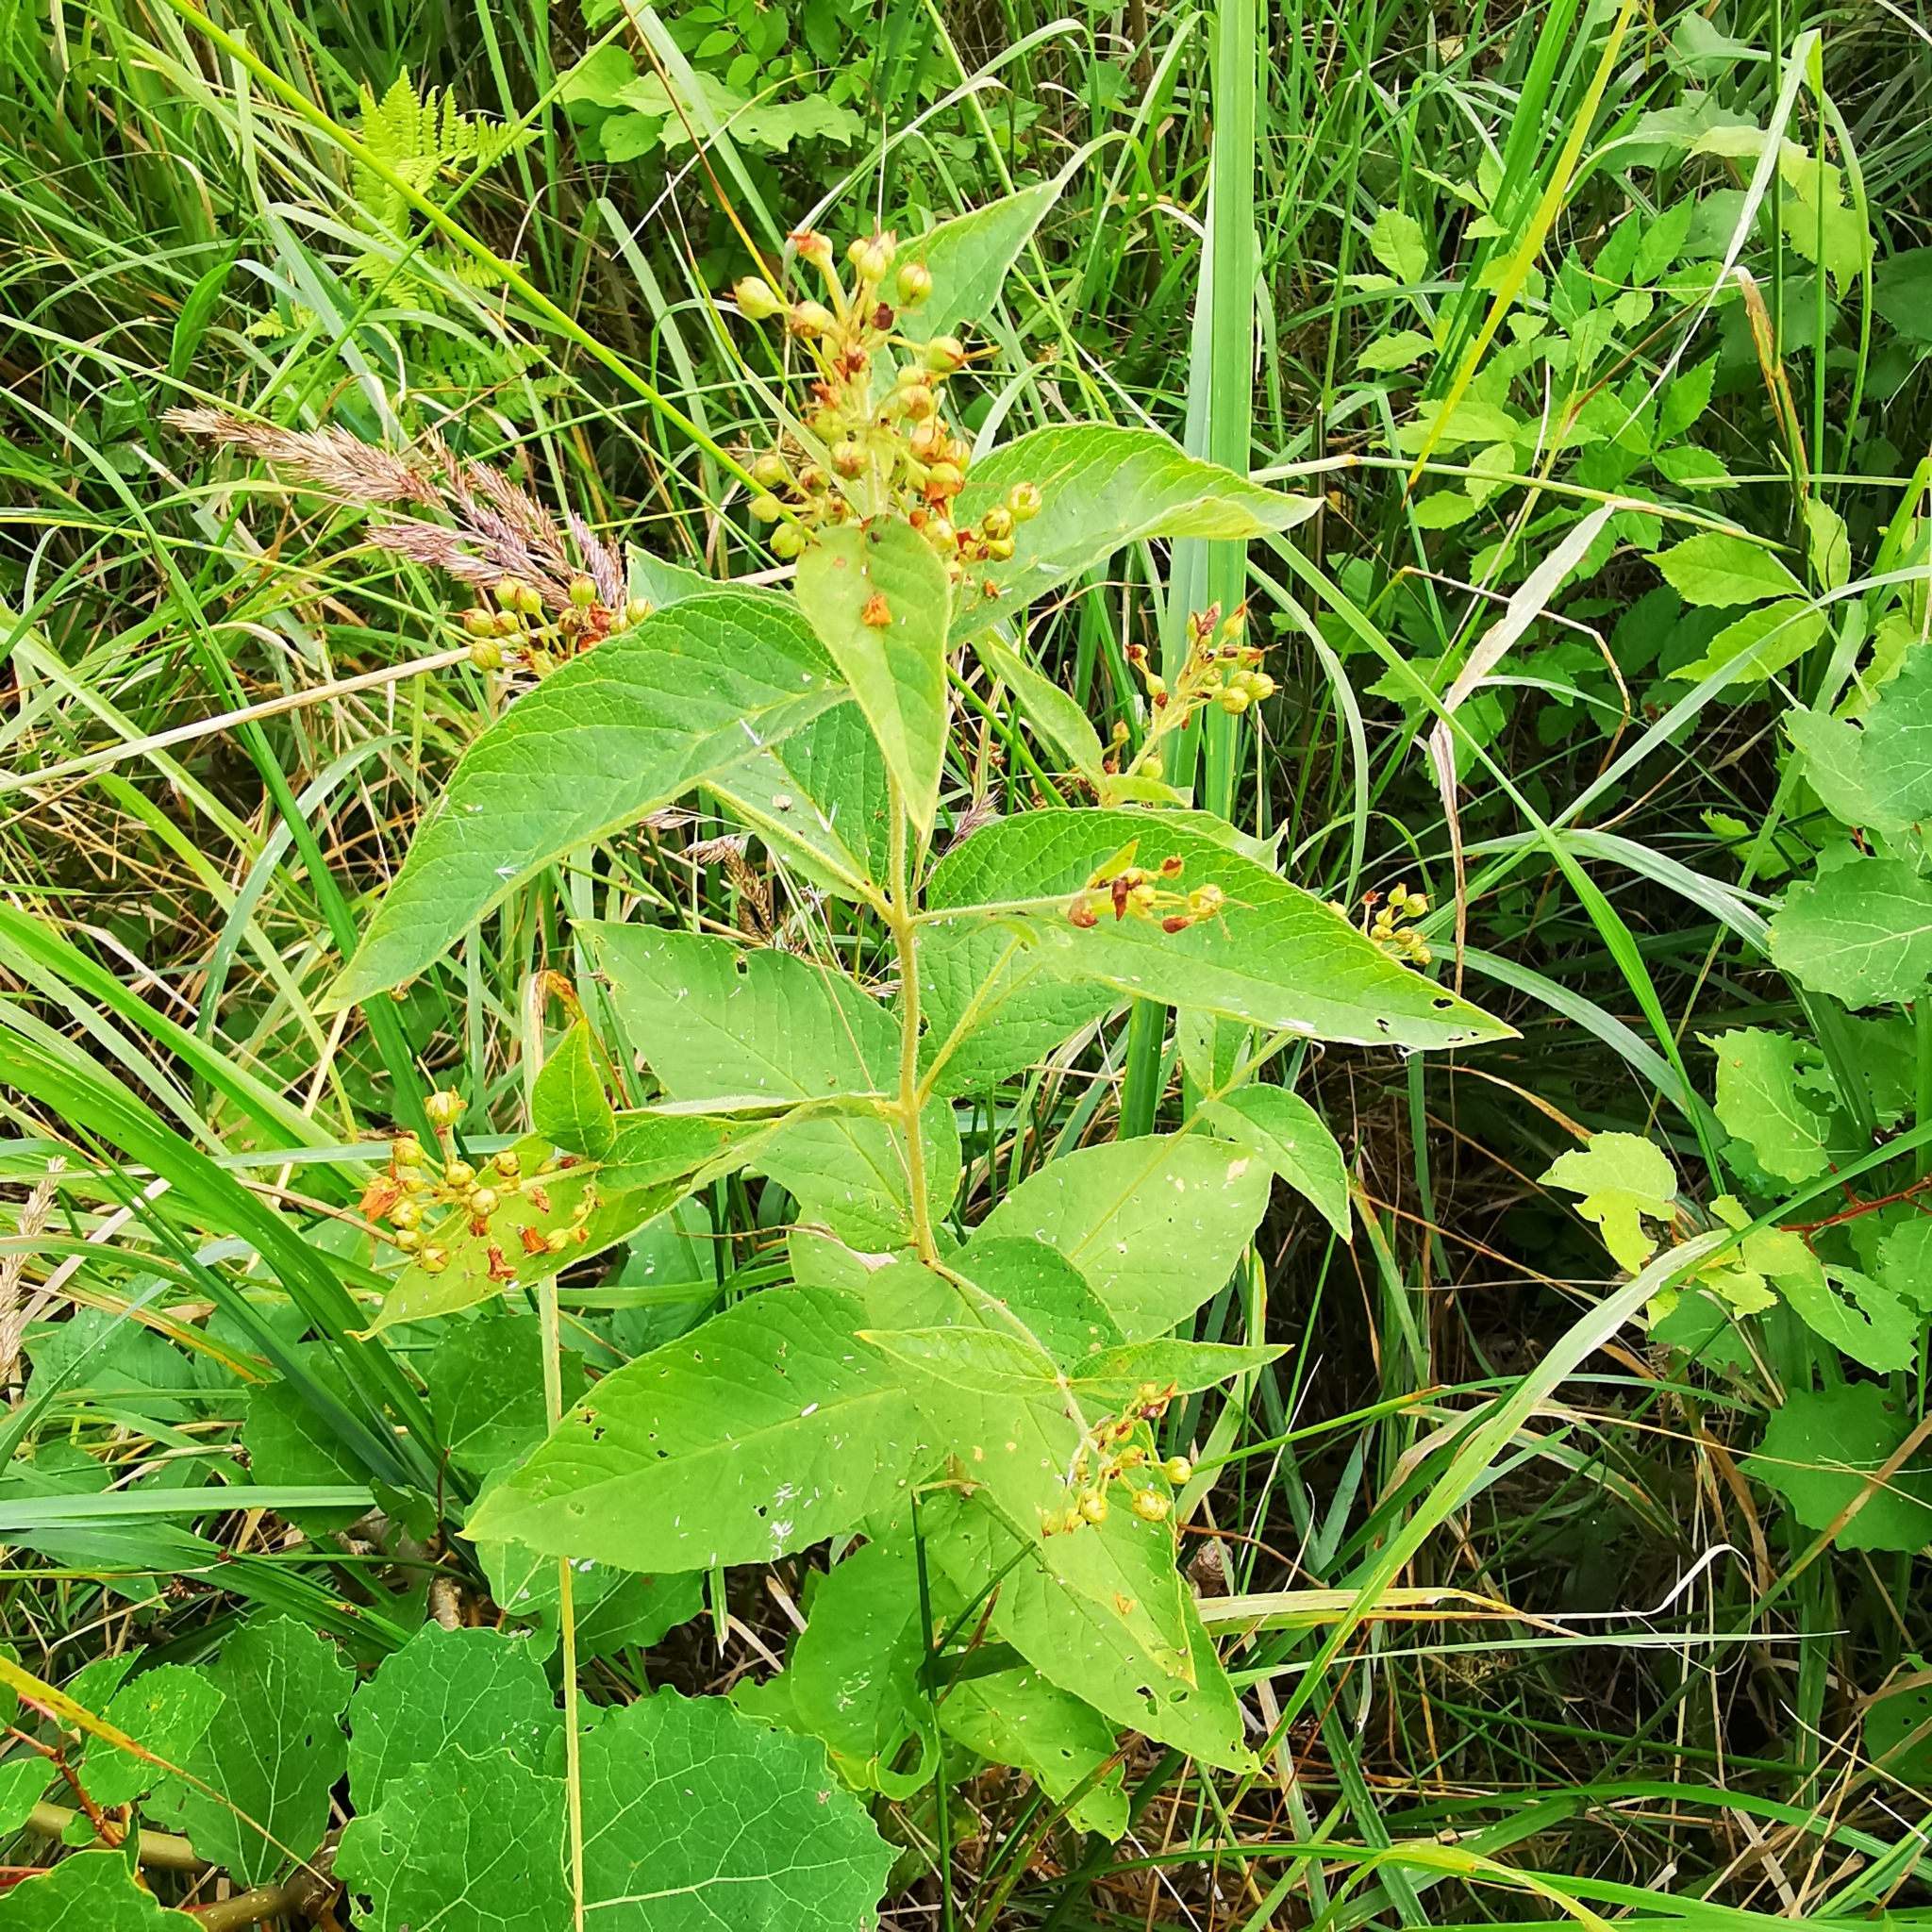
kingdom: Plantae
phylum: Tracheophyta
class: Magnoliopsida
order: Ericales
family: Primulaceae
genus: Lysimachia
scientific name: Lysimachia vulgaris
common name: Yellow loosestrife
